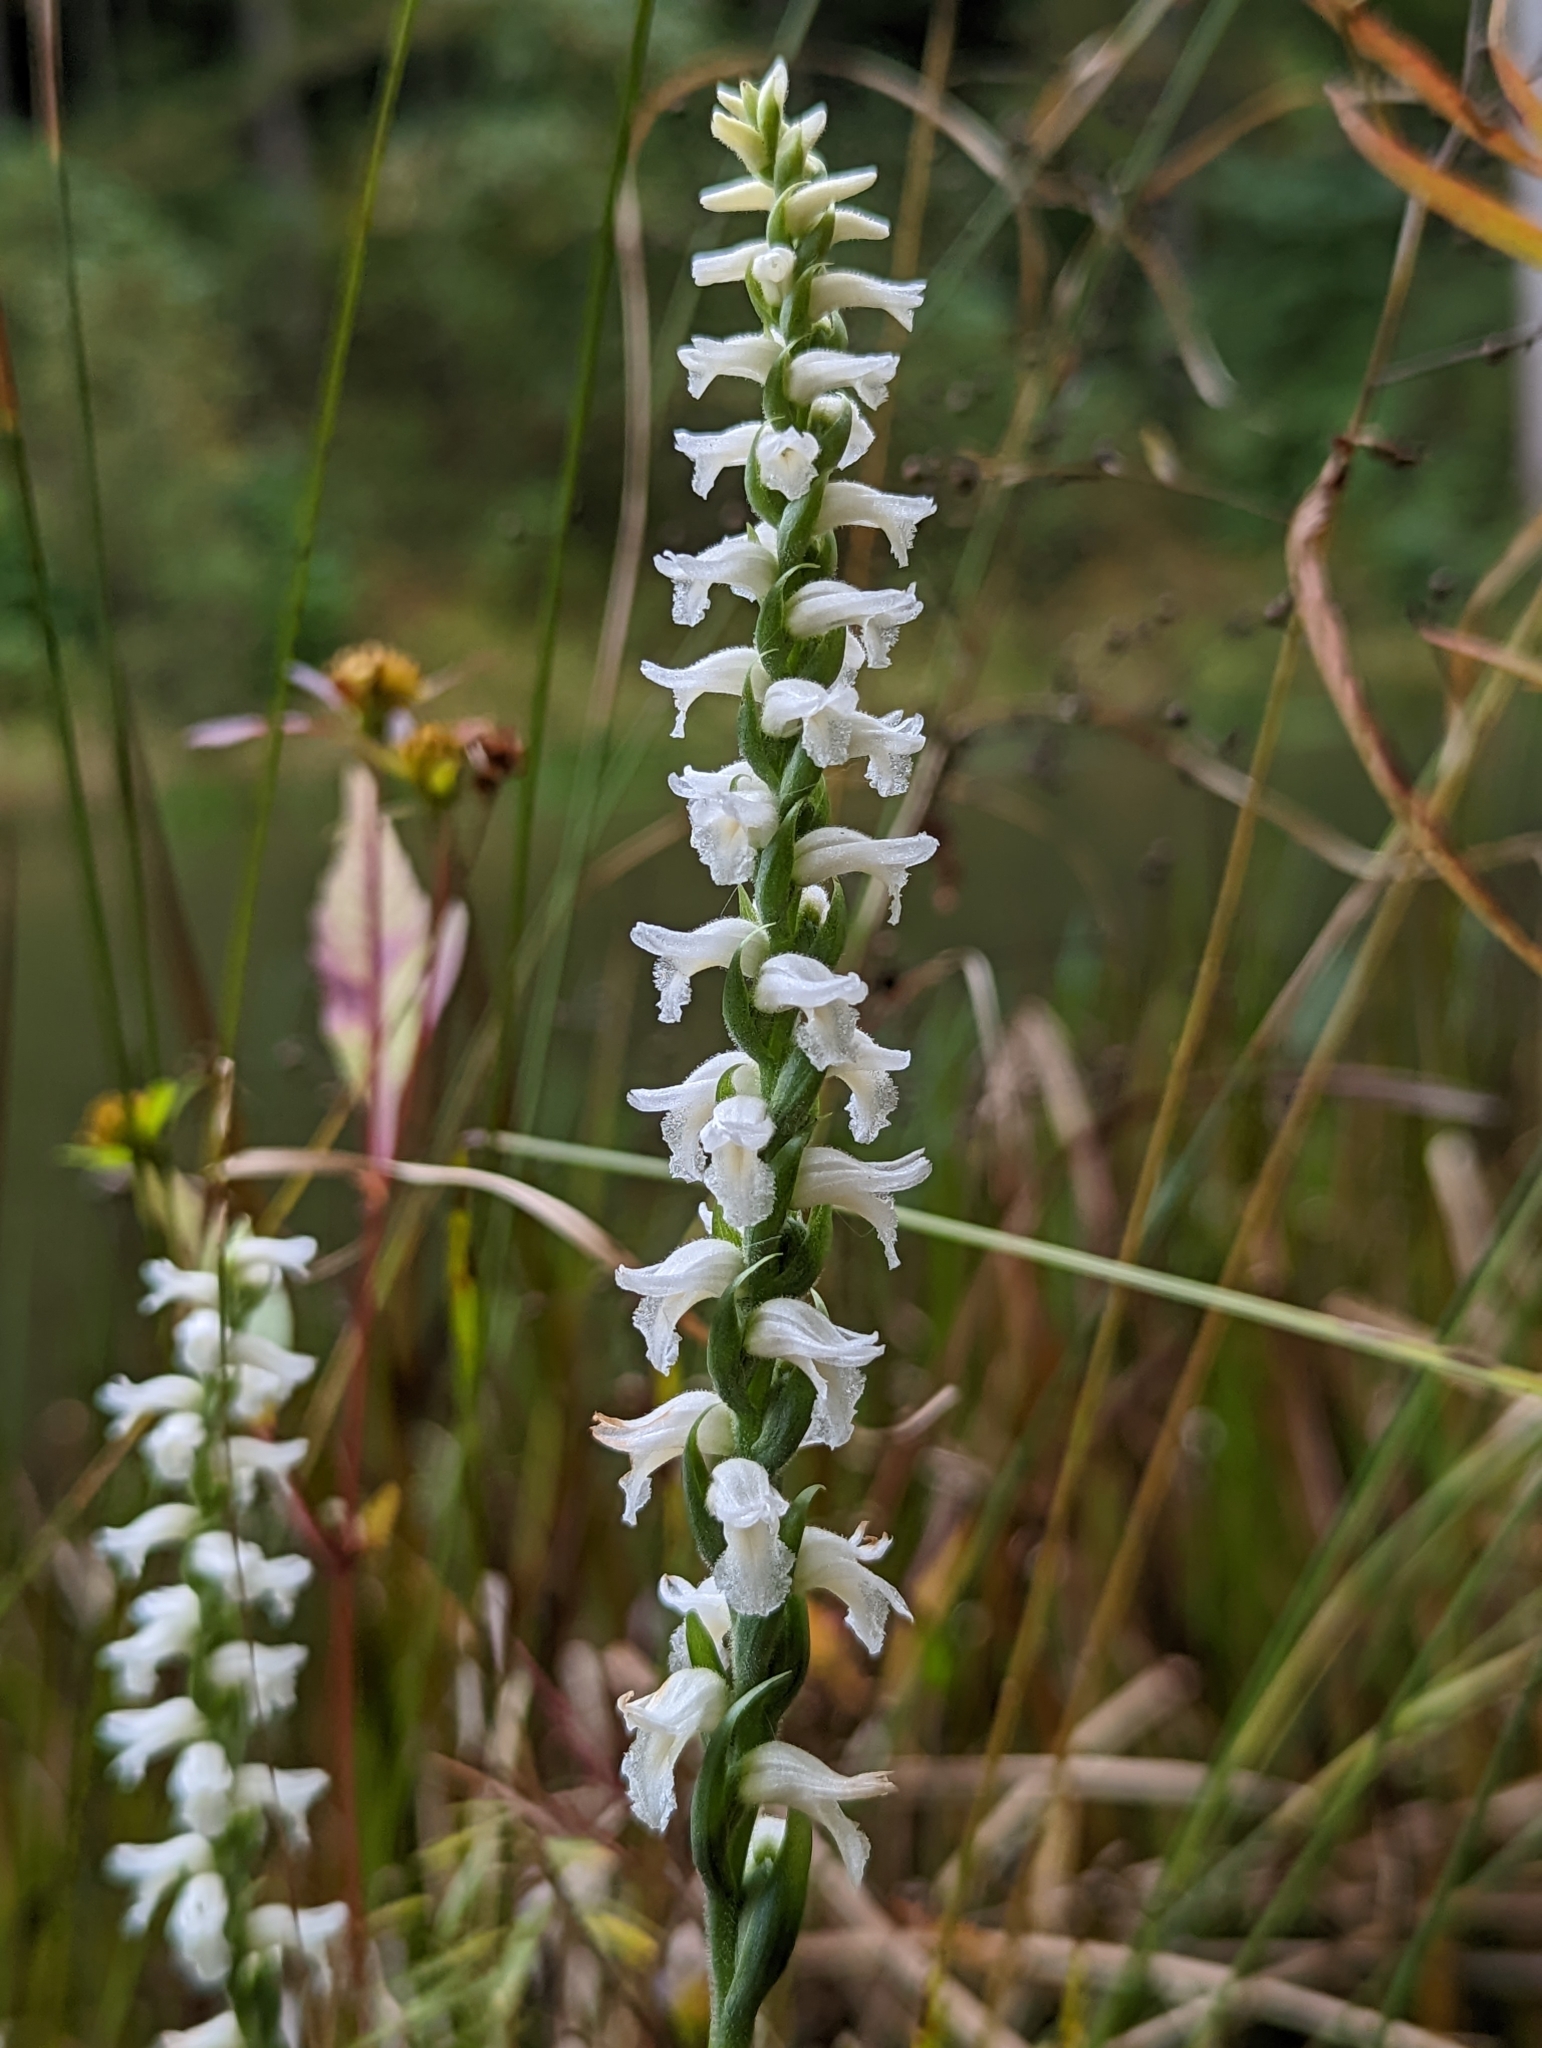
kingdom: Plantae
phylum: Tracheophyta
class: Liliopsida
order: Asparagales
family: Orchidaceae
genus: Spiranthes
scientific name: Spiranthes cernua
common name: Dropping ladies'-tresses
